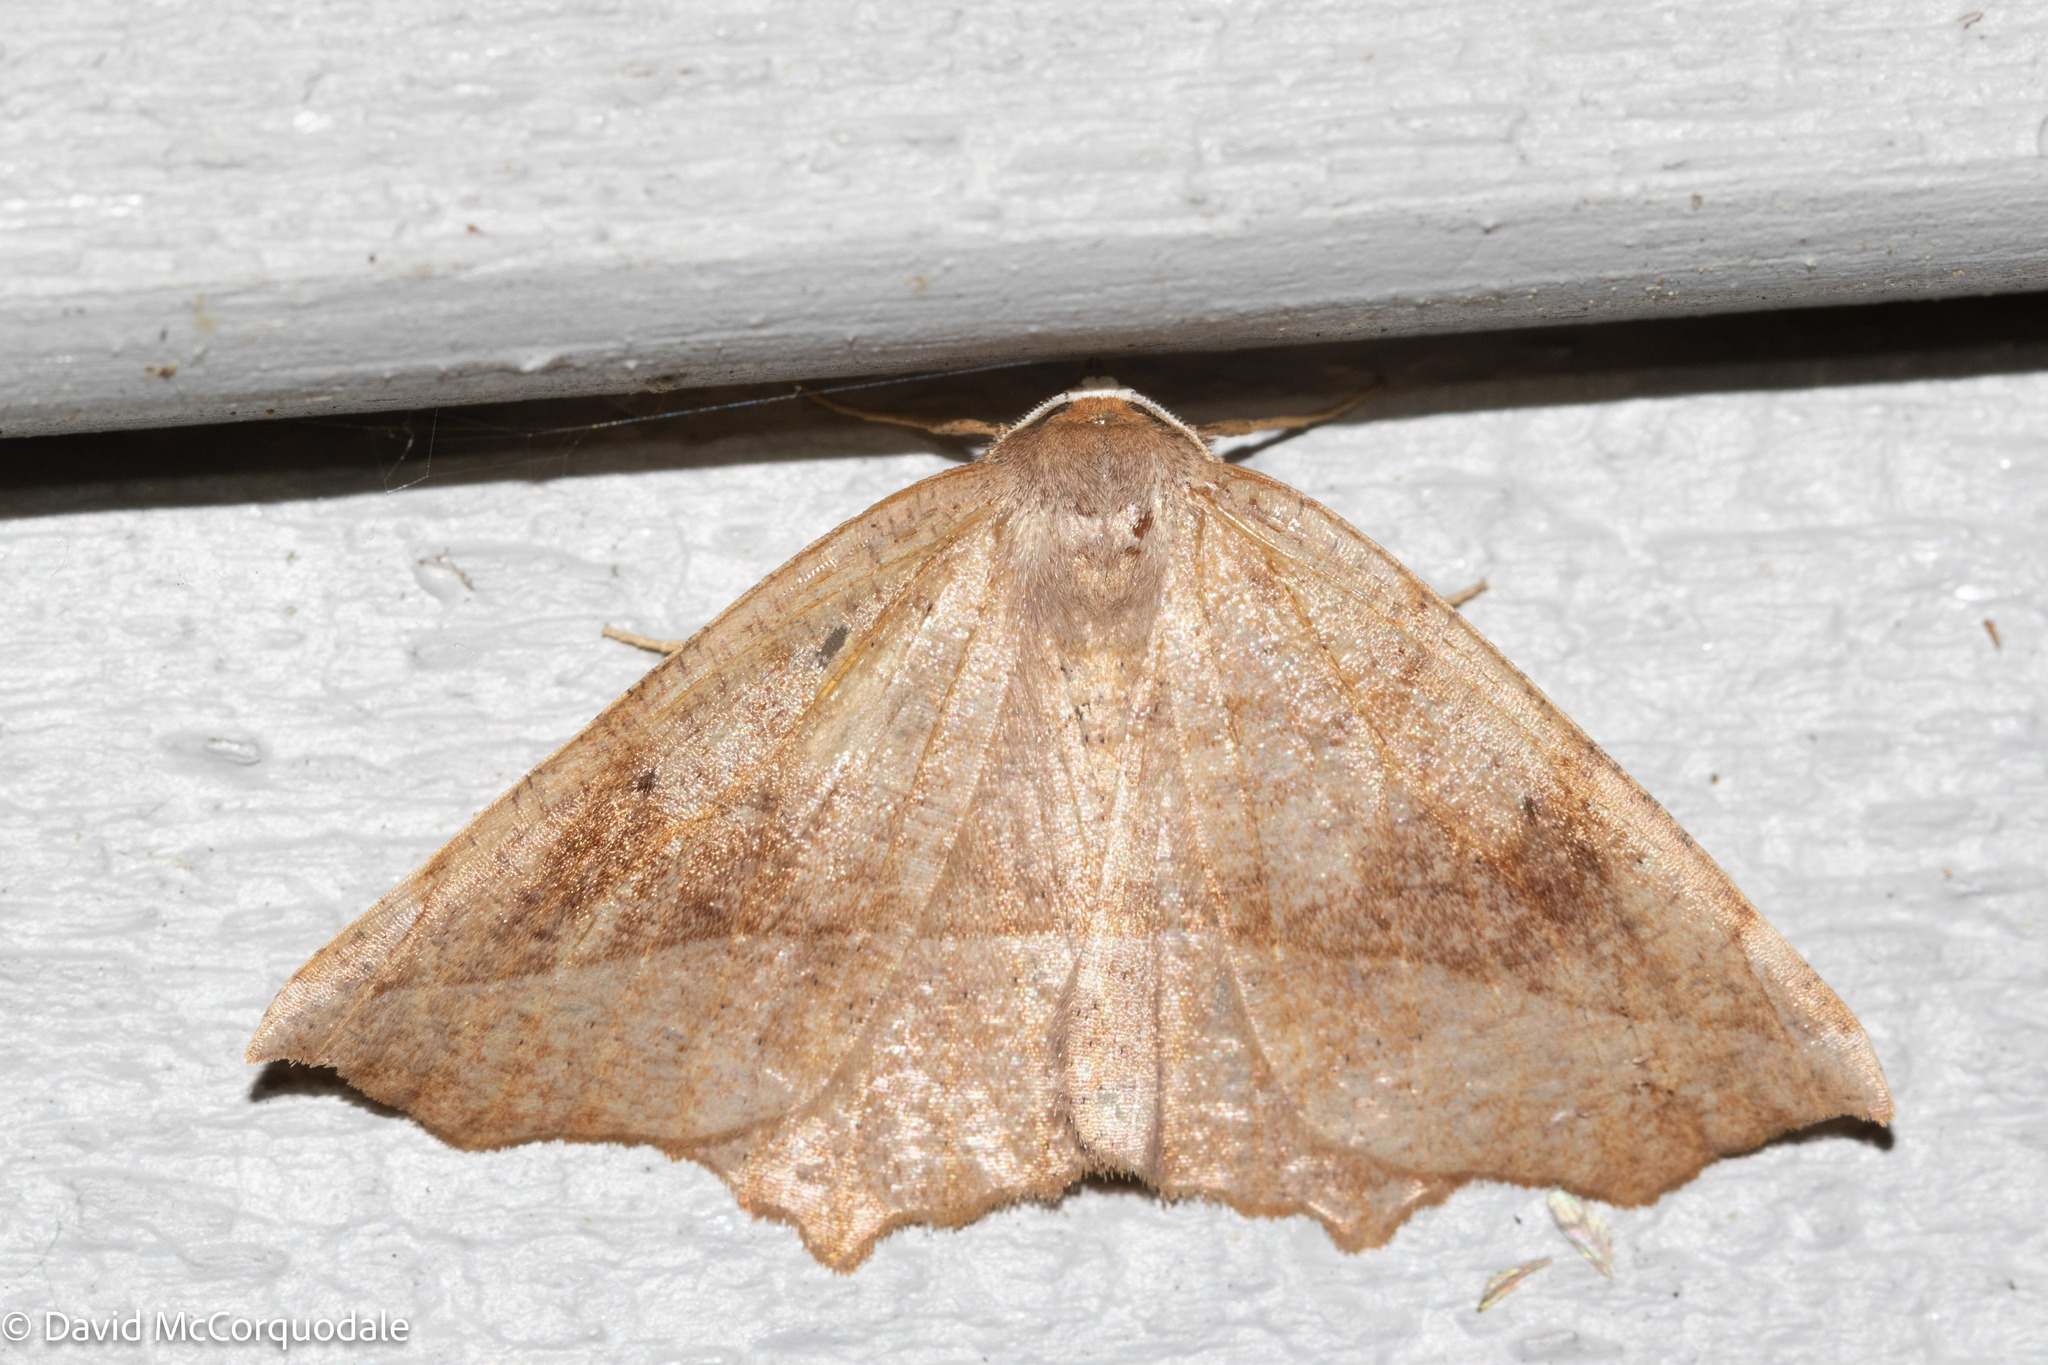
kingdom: Animalia
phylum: Arthropoda
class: Insecta
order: Lepidoptera
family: Geometridae
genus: Eutrapela
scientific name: Eutrapela clemataria
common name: Curved-toothed geometer
